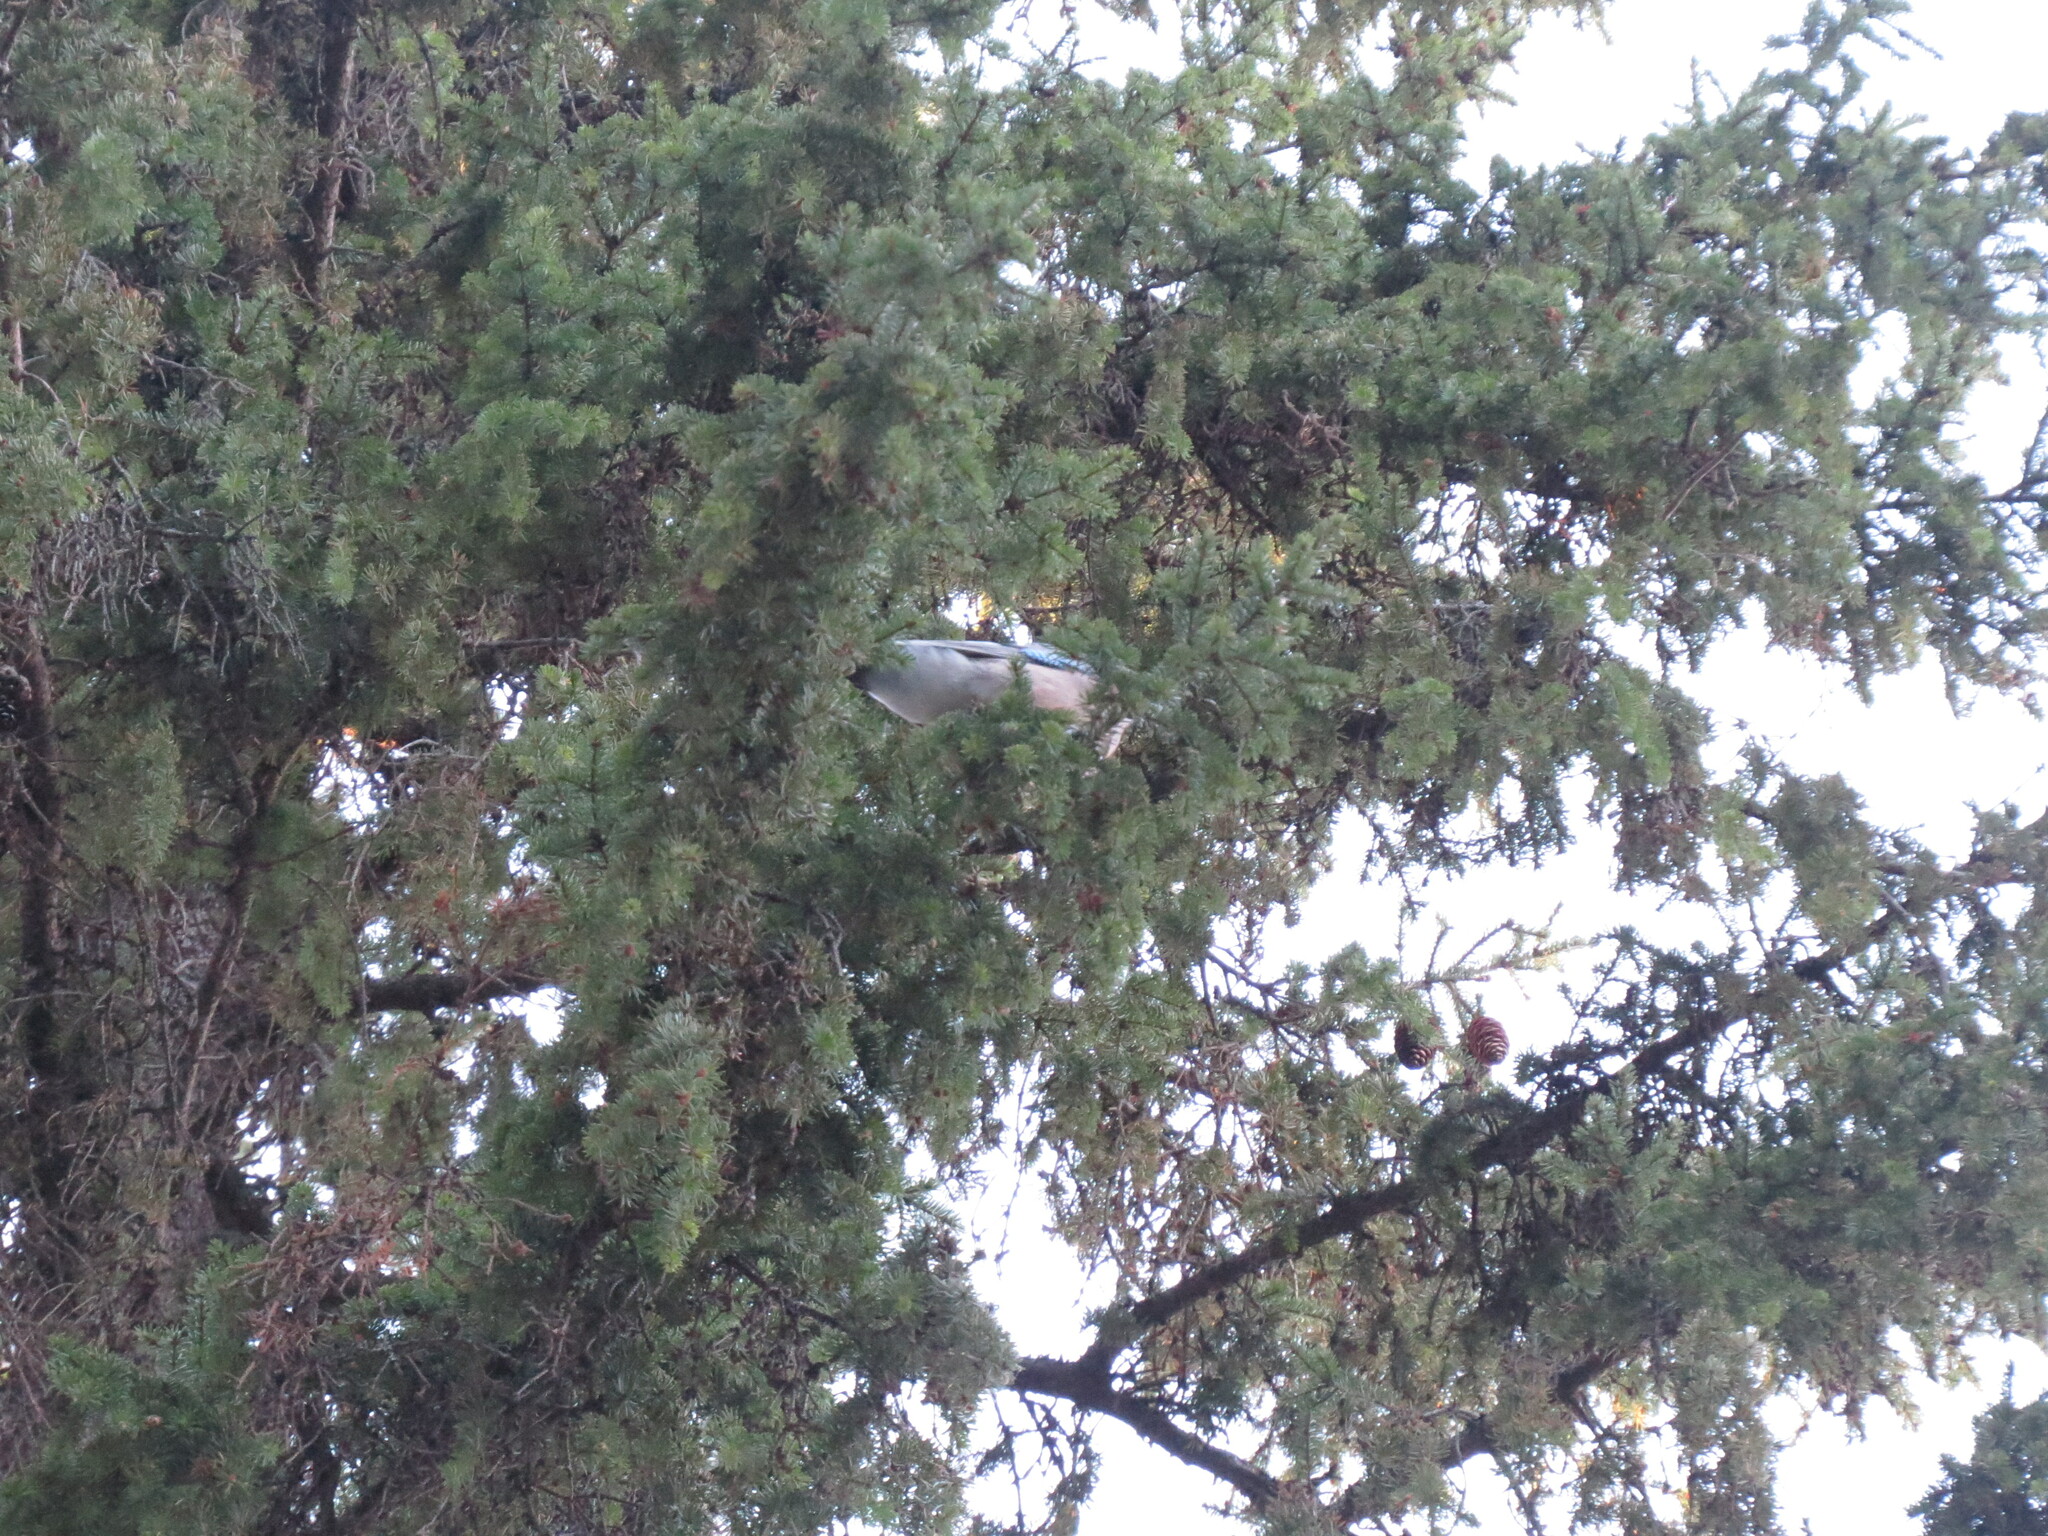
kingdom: Animalia
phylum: Chordata
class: Aves
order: Passeriformes
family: Corvidae
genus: Garrulus
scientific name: Garrulus glandarius
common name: Eurasian jay
